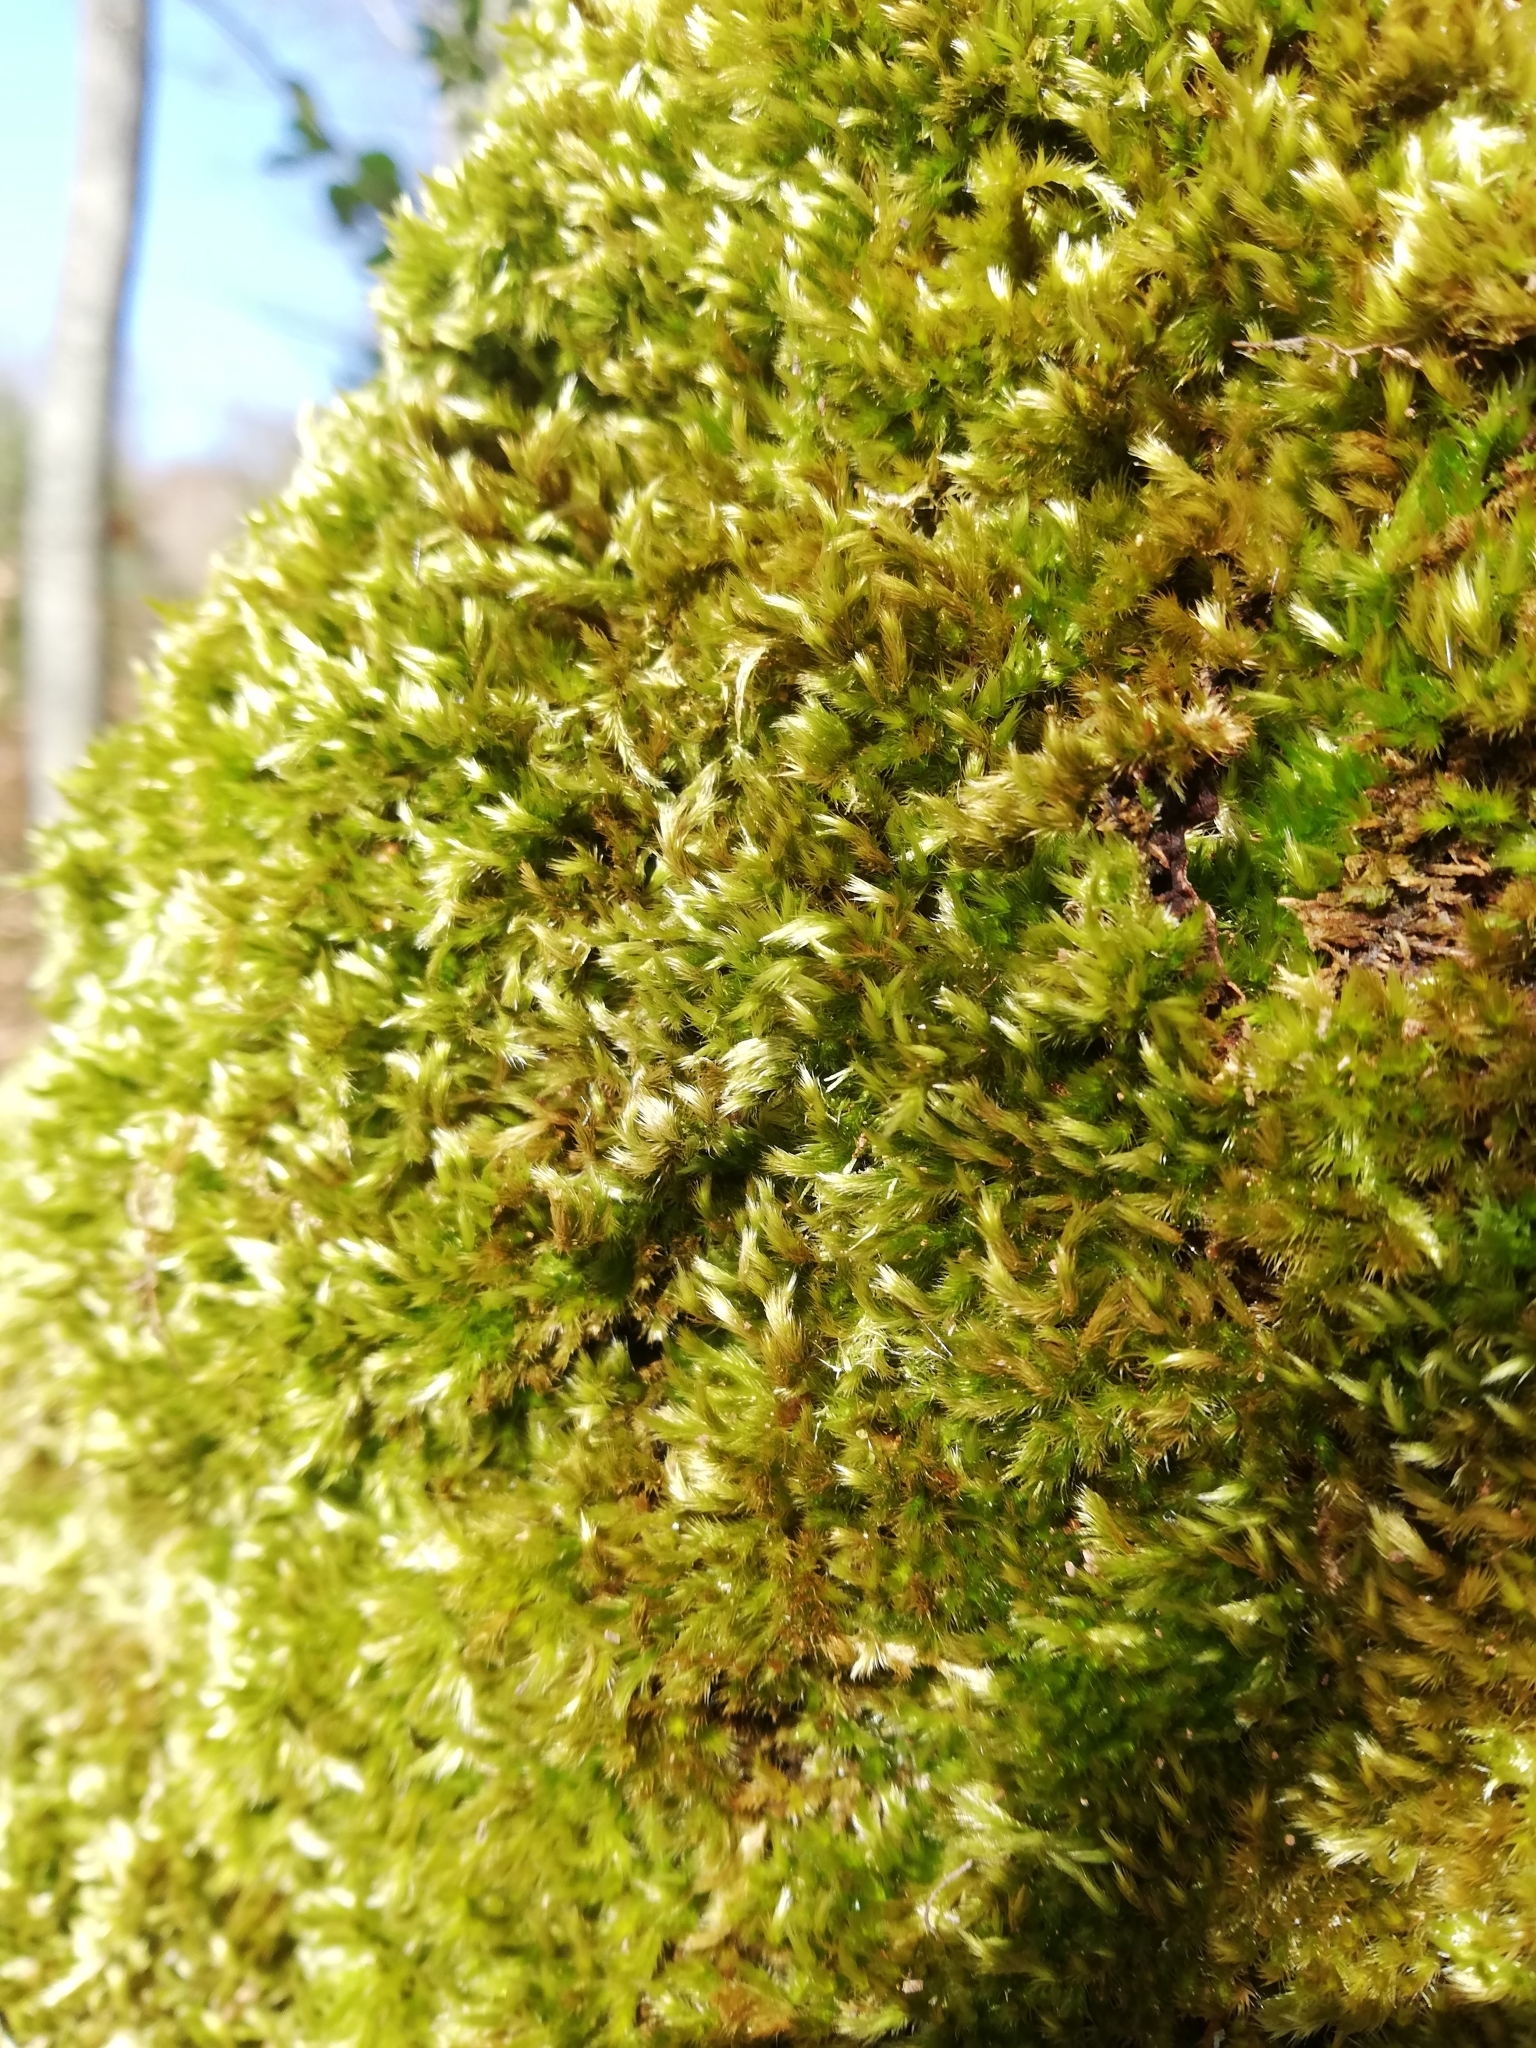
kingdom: Plantae
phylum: Bryophyta
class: Bryopsida
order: Hypnales
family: Brachytheciaceae
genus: Homalothecium
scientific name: Homalothecium sericeum
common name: Silky wall feather-moss
